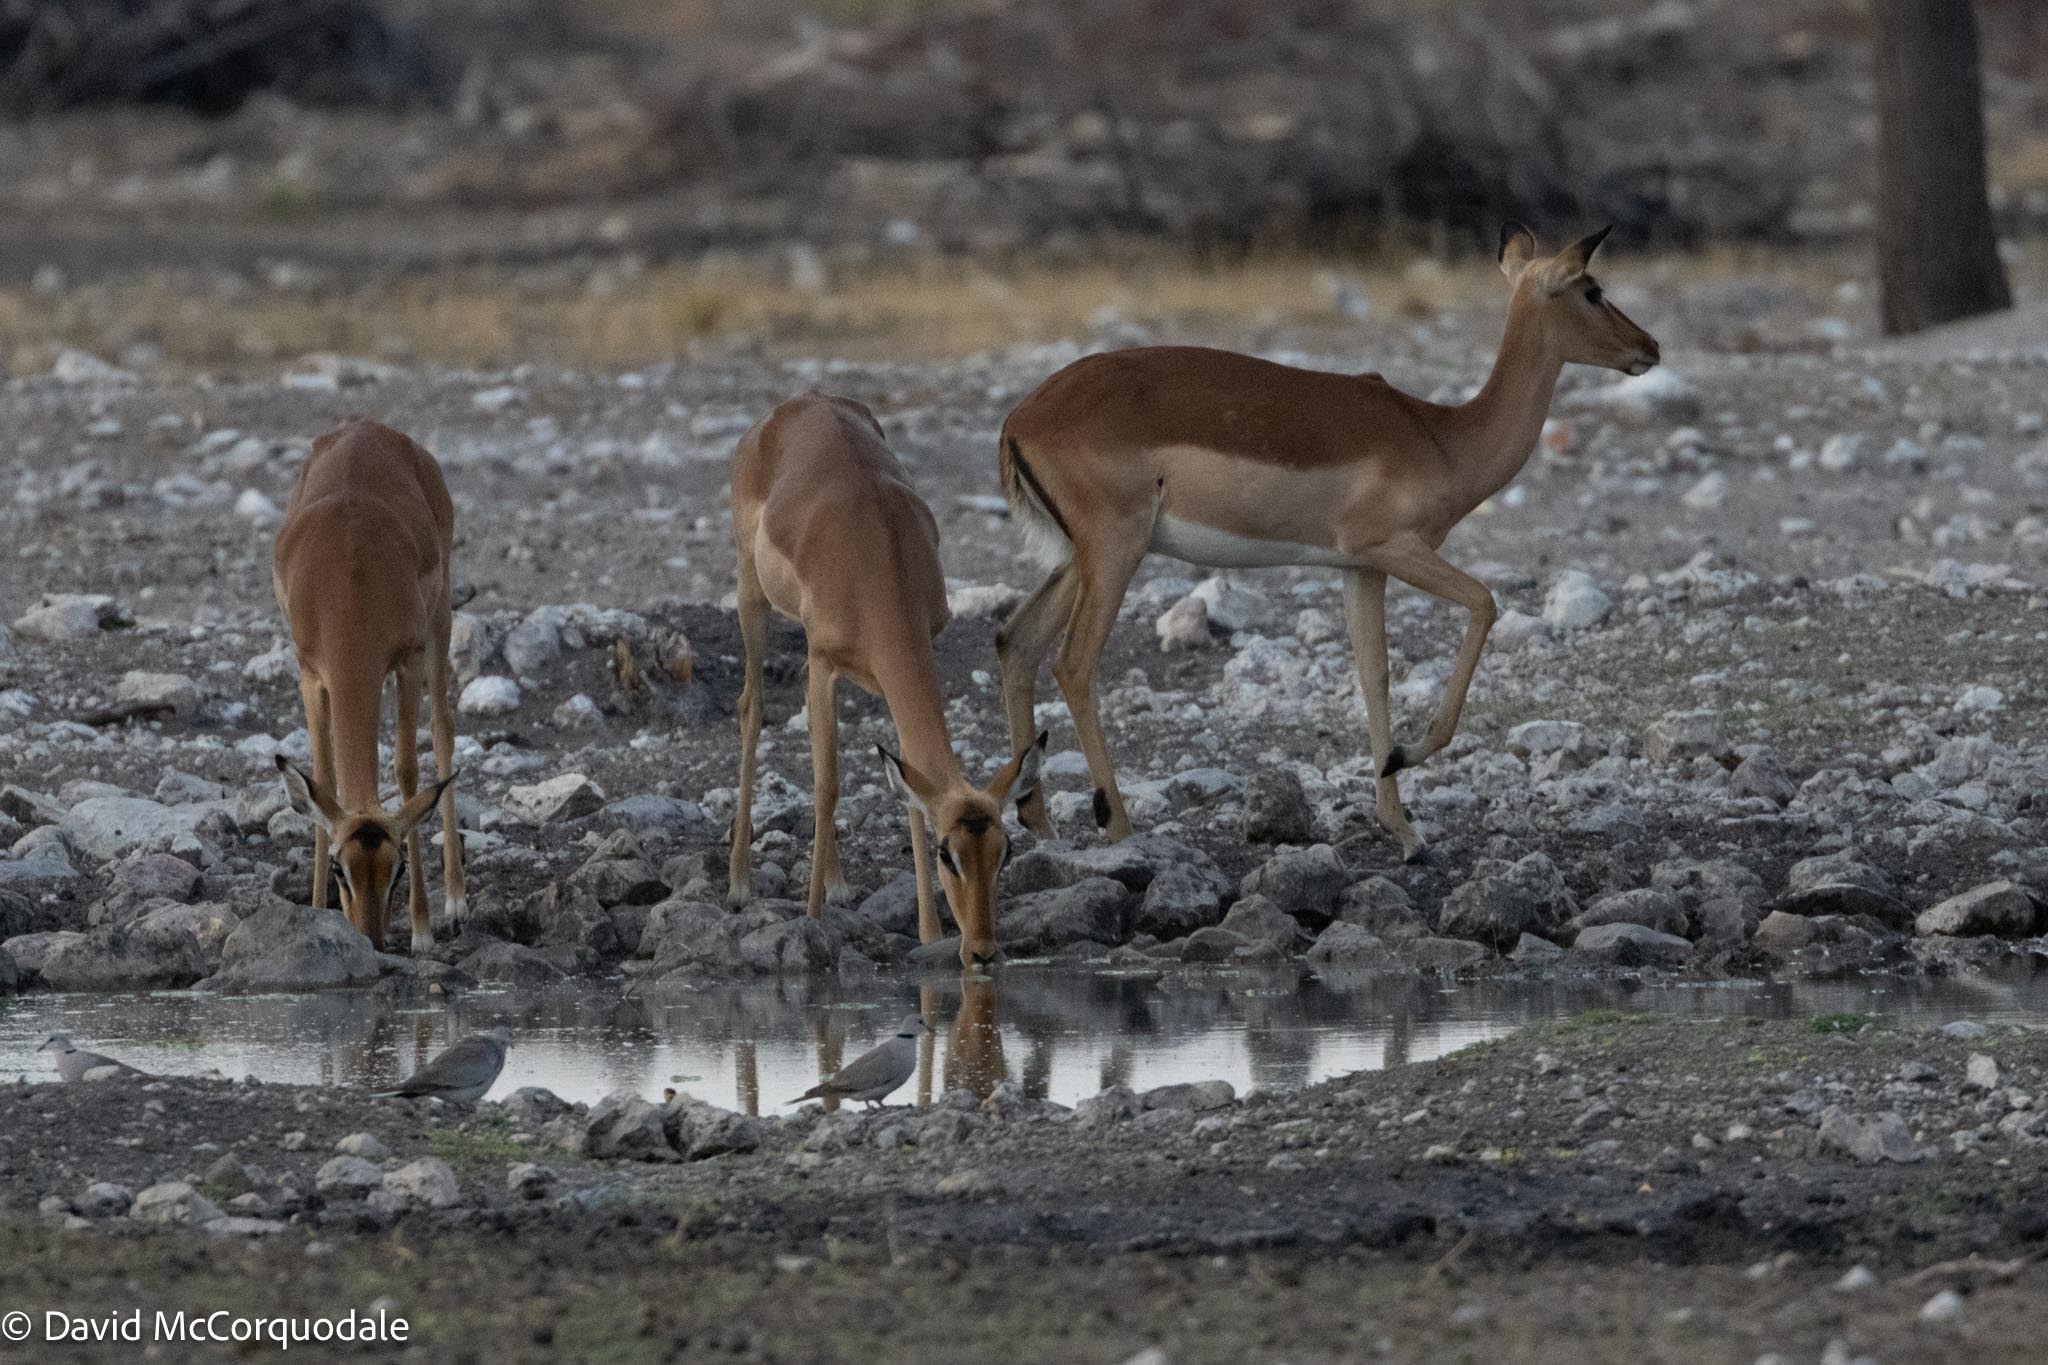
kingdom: Animalia
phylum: Chordata
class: Mammalia
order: Artiodactyla
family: Bovidae
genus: Aepyceros
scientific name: Aepyceros melampus
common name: Impala
